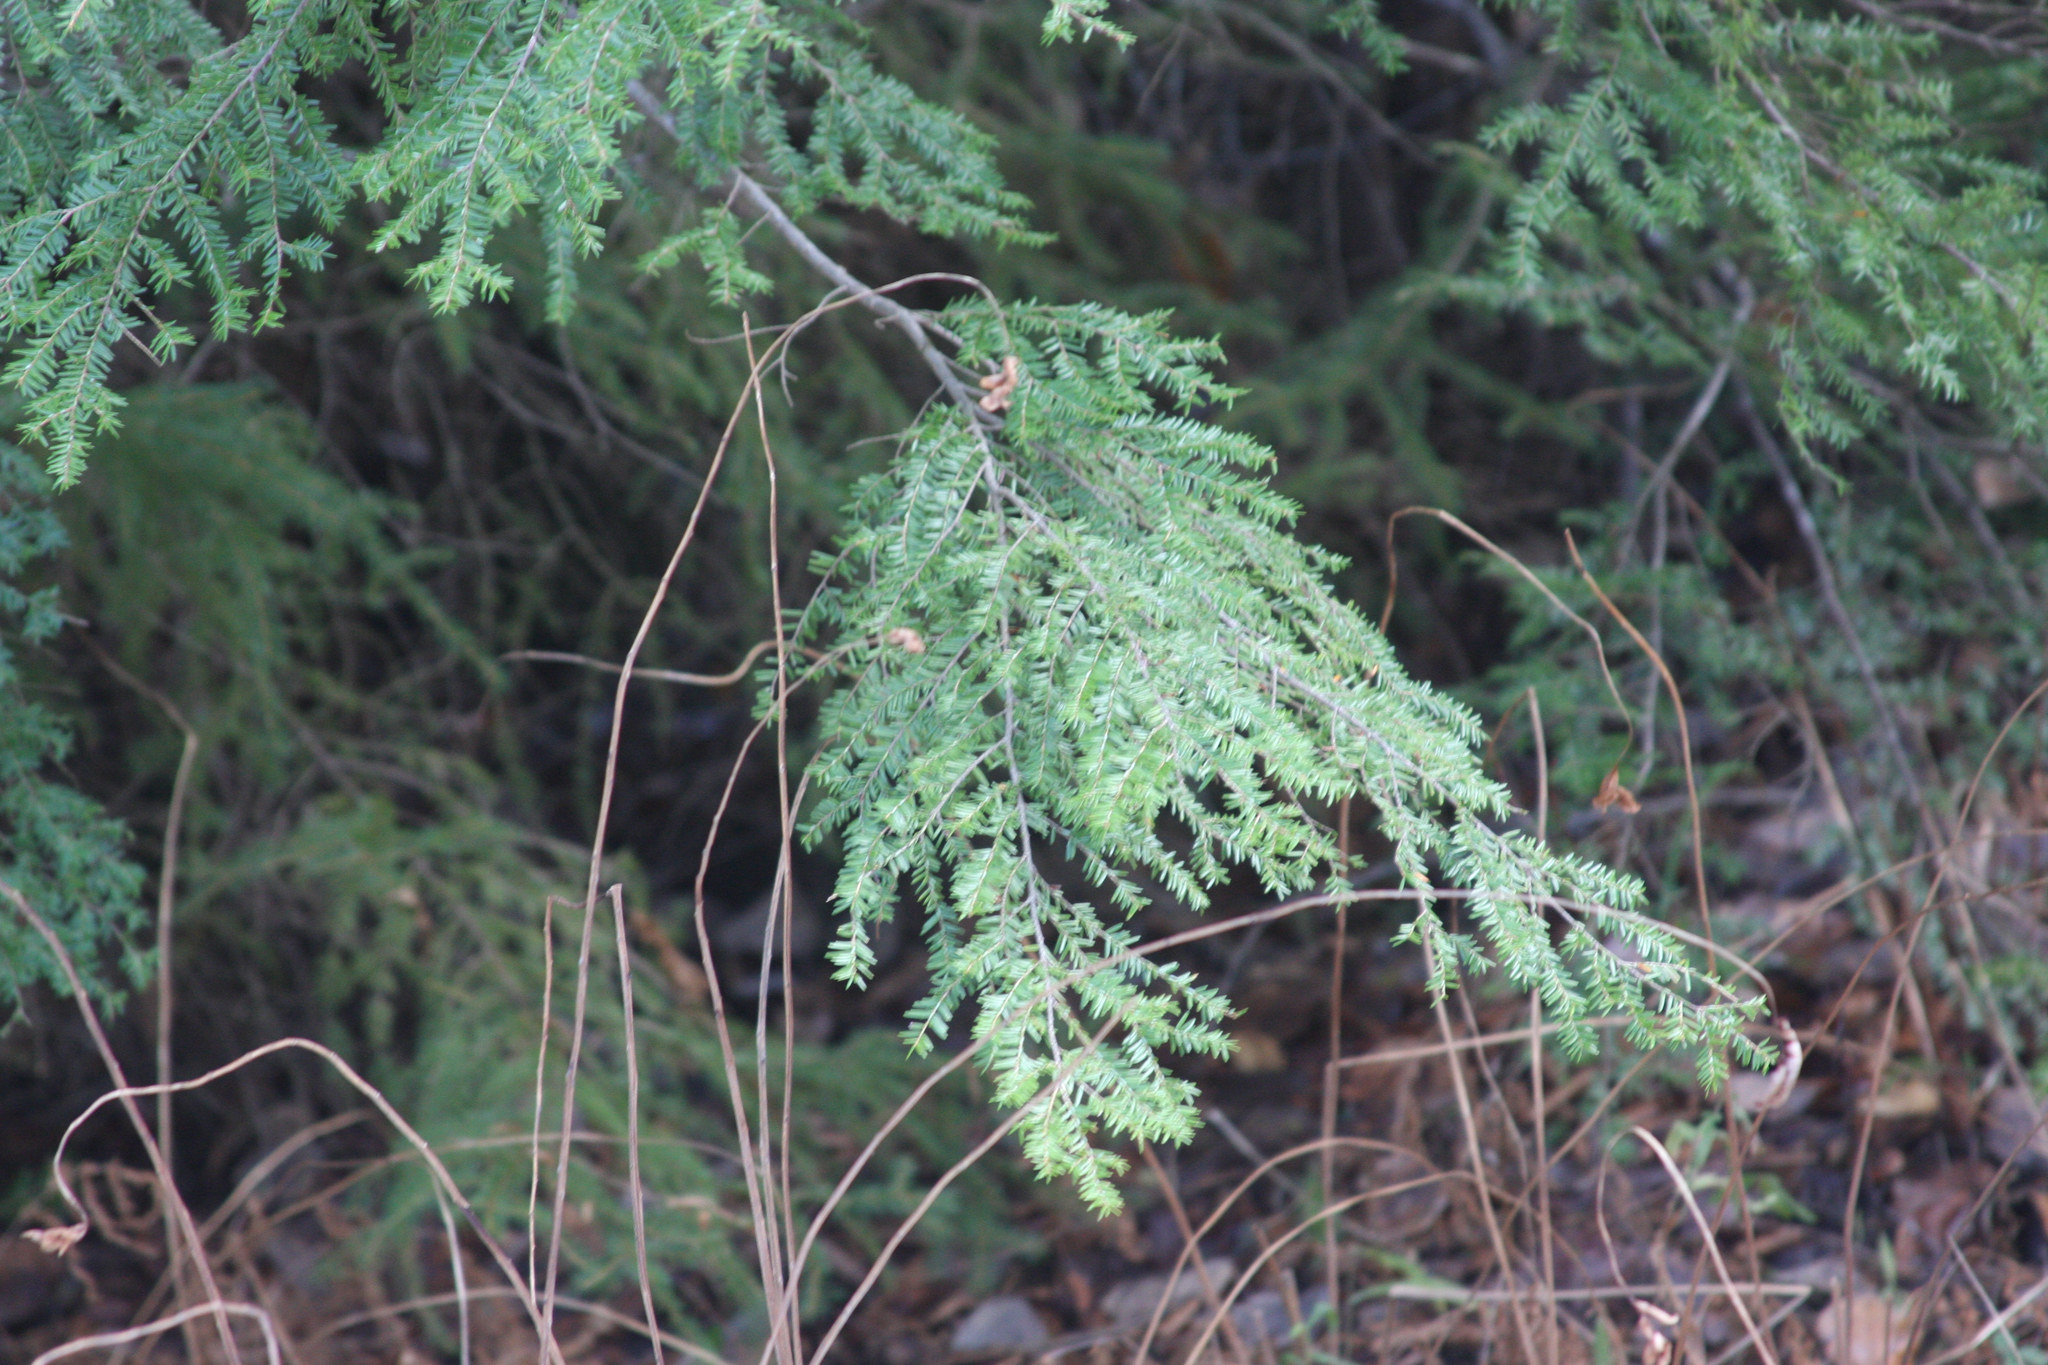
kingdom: Plantae
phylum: Tracheophyta
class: Pinopsida
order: Pinales
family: Pinaceae
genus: Tsuga
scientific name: Tsuga canadensis
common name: Eastern hemlock
